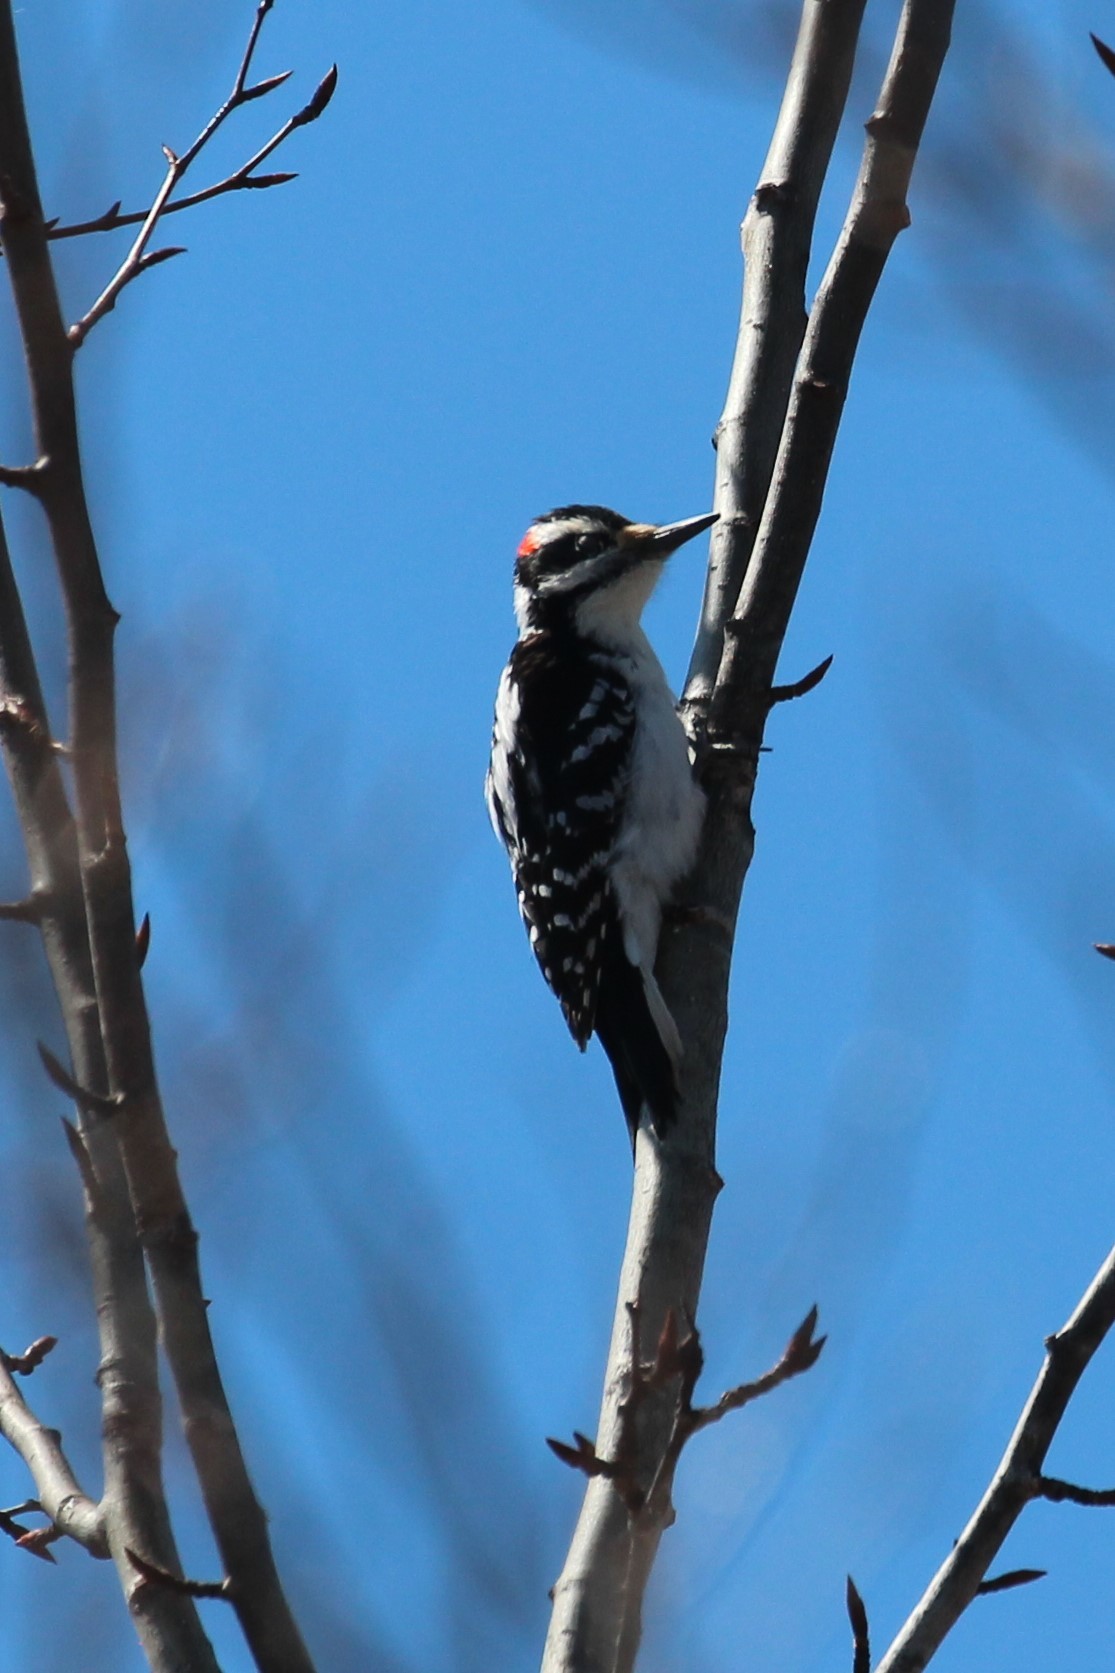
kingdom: Animalia
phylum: Chordata
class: Aves
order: Piciformes
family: Picidae
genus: Leuconotopicus
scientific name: Leuconotopicus villosus
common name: Hairy woodpecker
